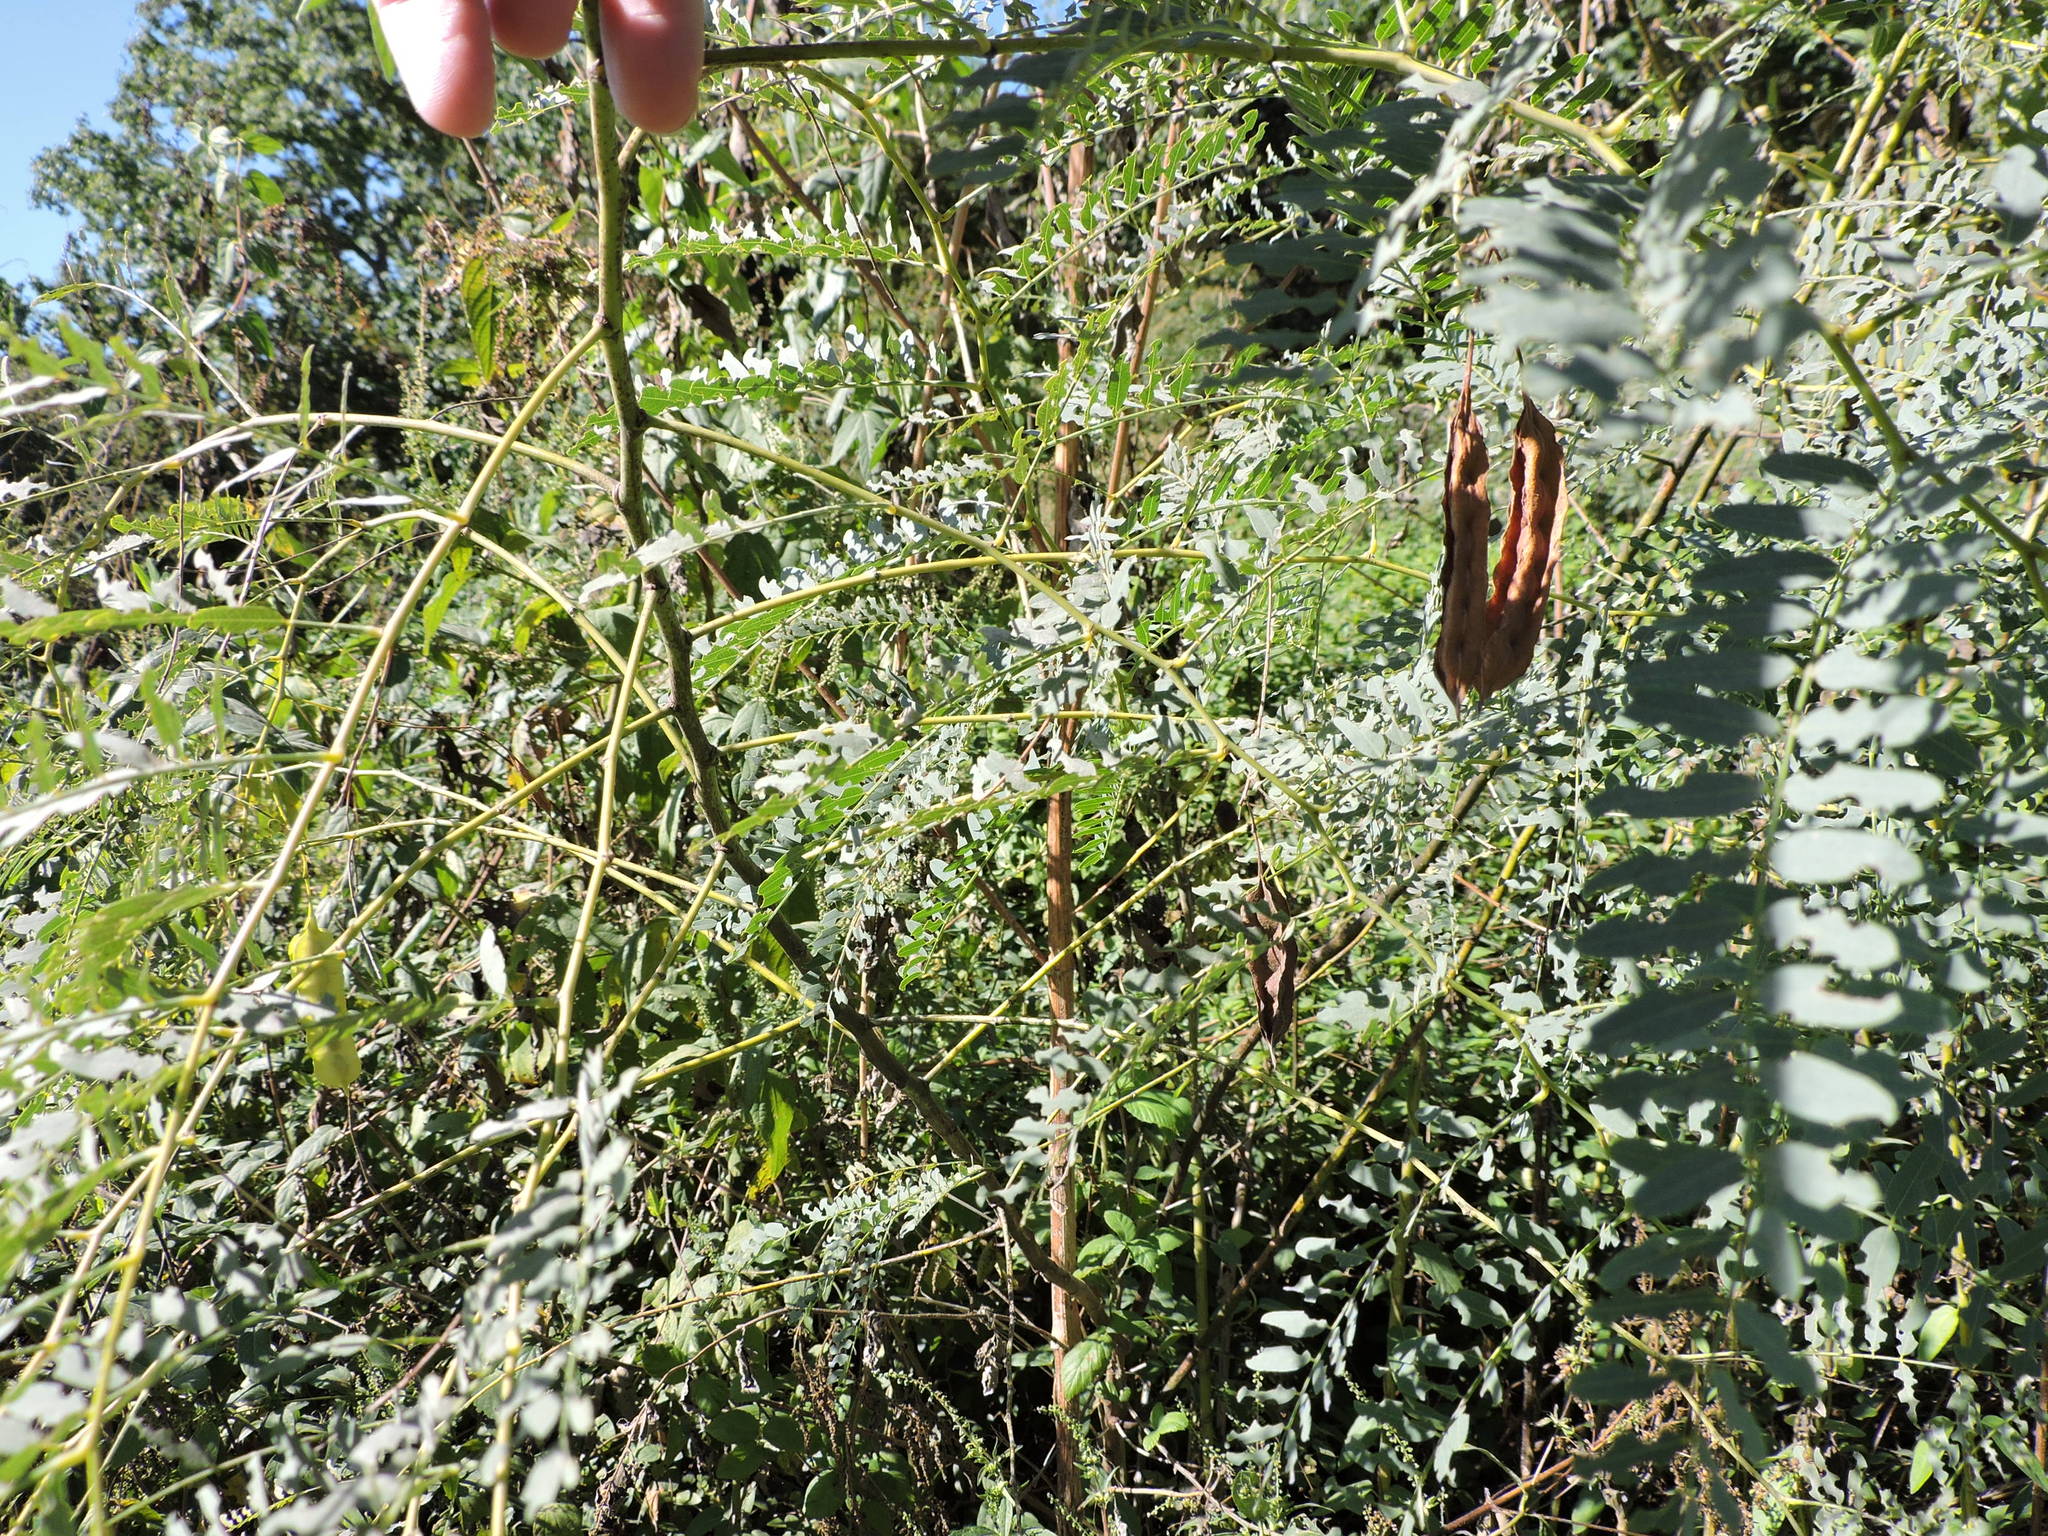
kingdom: Plantae
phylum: Tracheophyta
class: Magnoliopsida
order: Fabales
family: Fabaceae
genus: Sesbania
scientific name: Sesbania drummondii
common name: Poison-bean
